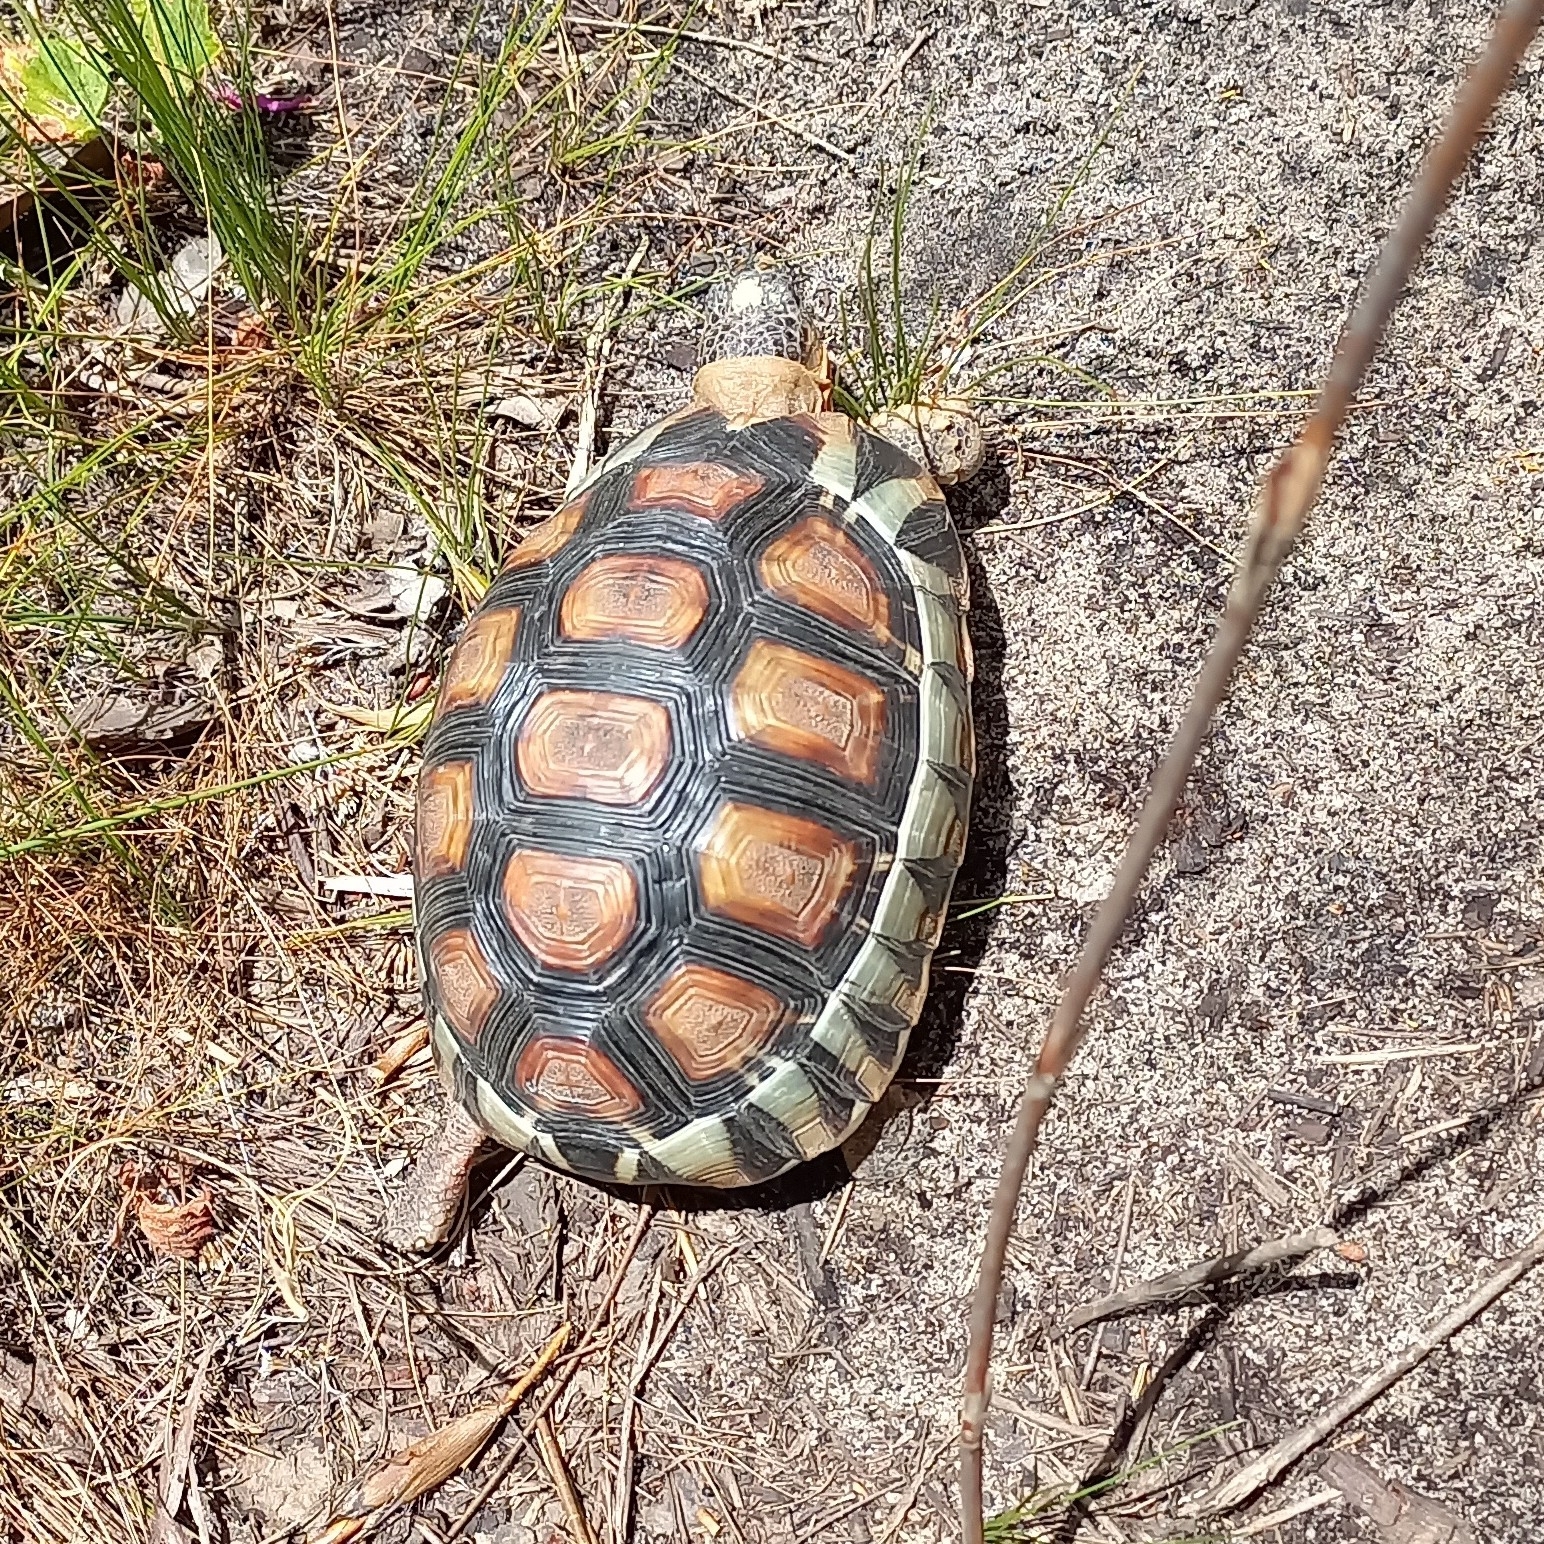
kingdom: Animalia
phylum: Chordata
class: Testudines
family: Testudinidae
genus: Chersina
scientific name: Chersina angulata
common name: South african bowsprit tortoise
